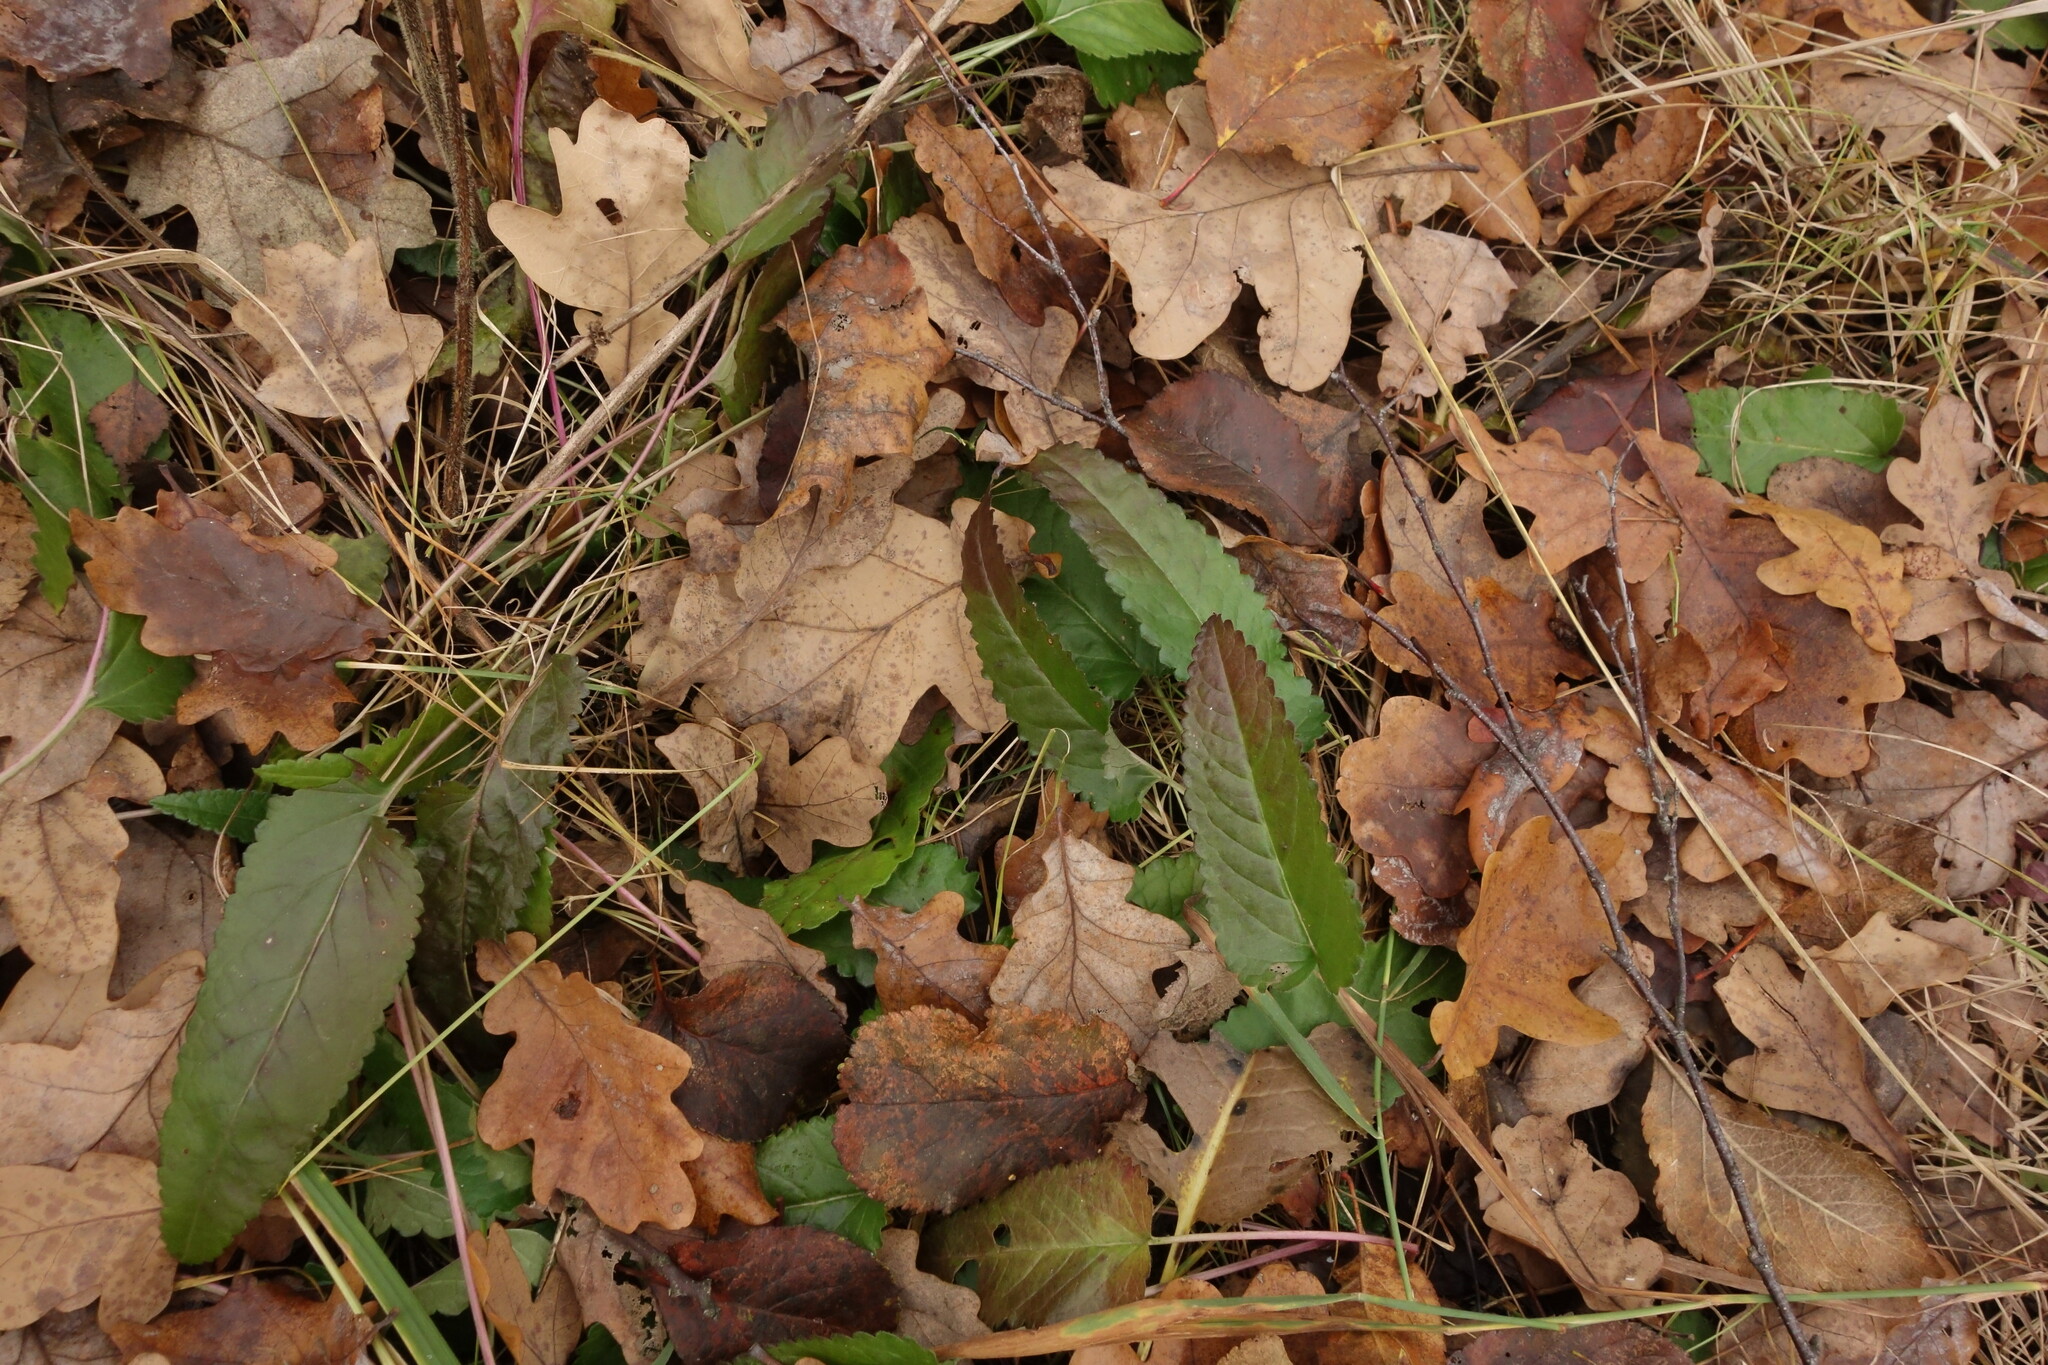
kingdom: Plantae
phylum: Tracheophyta
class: Magnoliopsida
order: Lamiales
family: Lamiaceae
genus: Betonica
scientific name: Betonica officinalis
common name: Bishop's-wort
